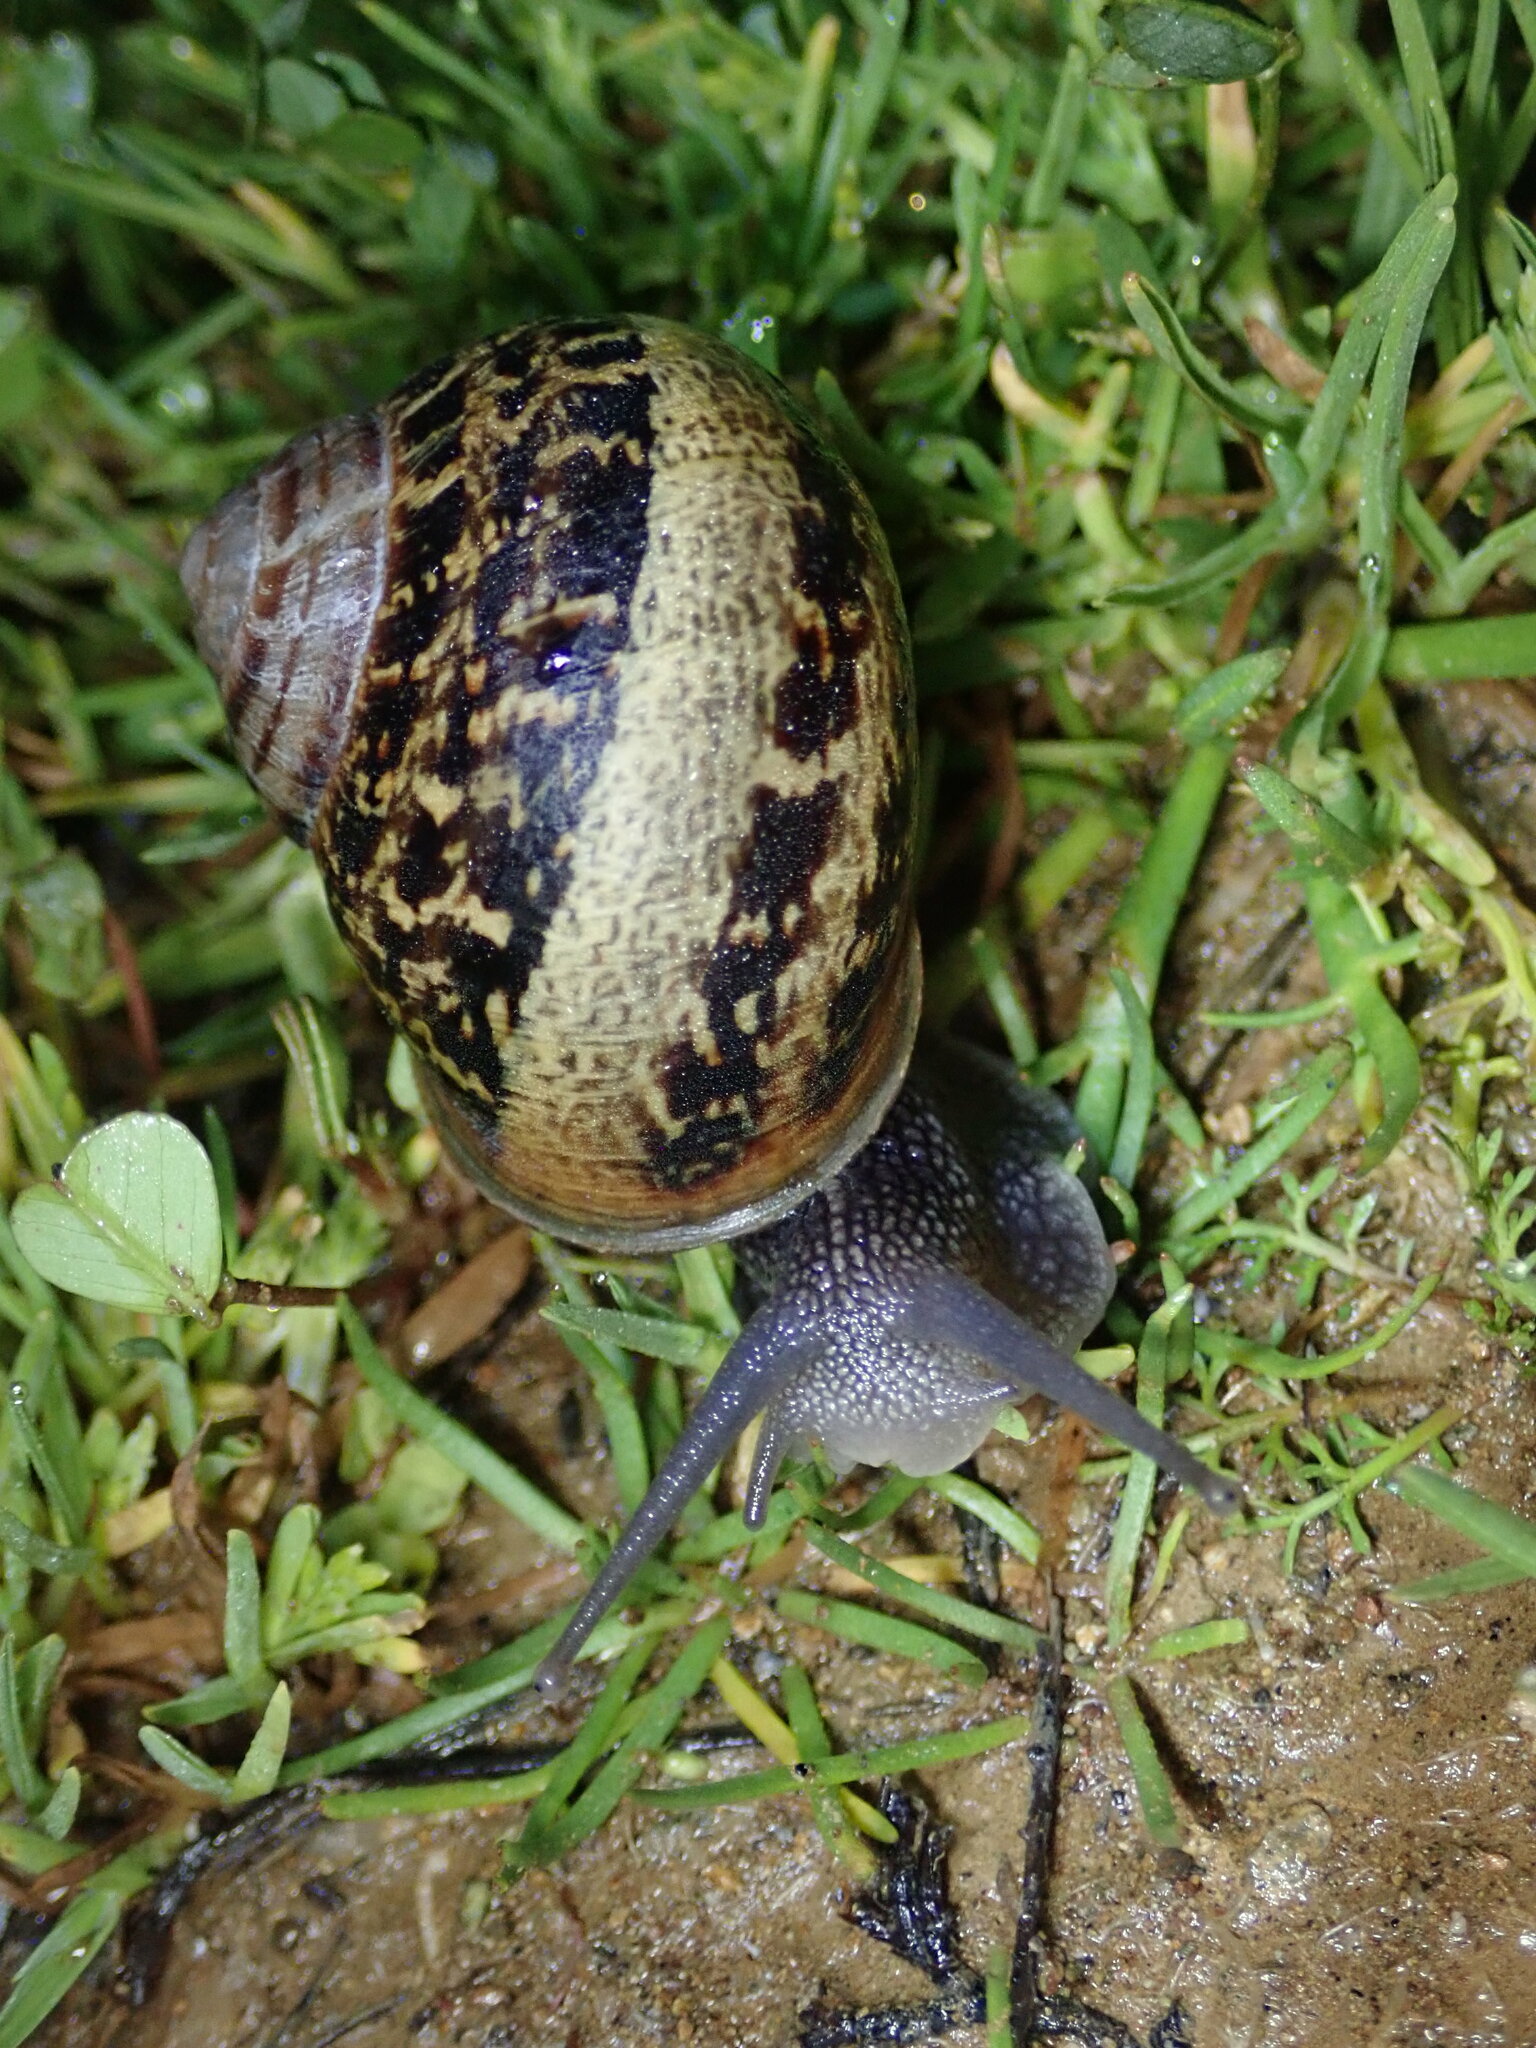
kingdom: Animalia
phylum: Mollusca
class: Gastropoda
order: Stylommatophora
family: Helicidae
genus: Cornu
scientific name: Cornu aspersum
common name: Brown garden snail
